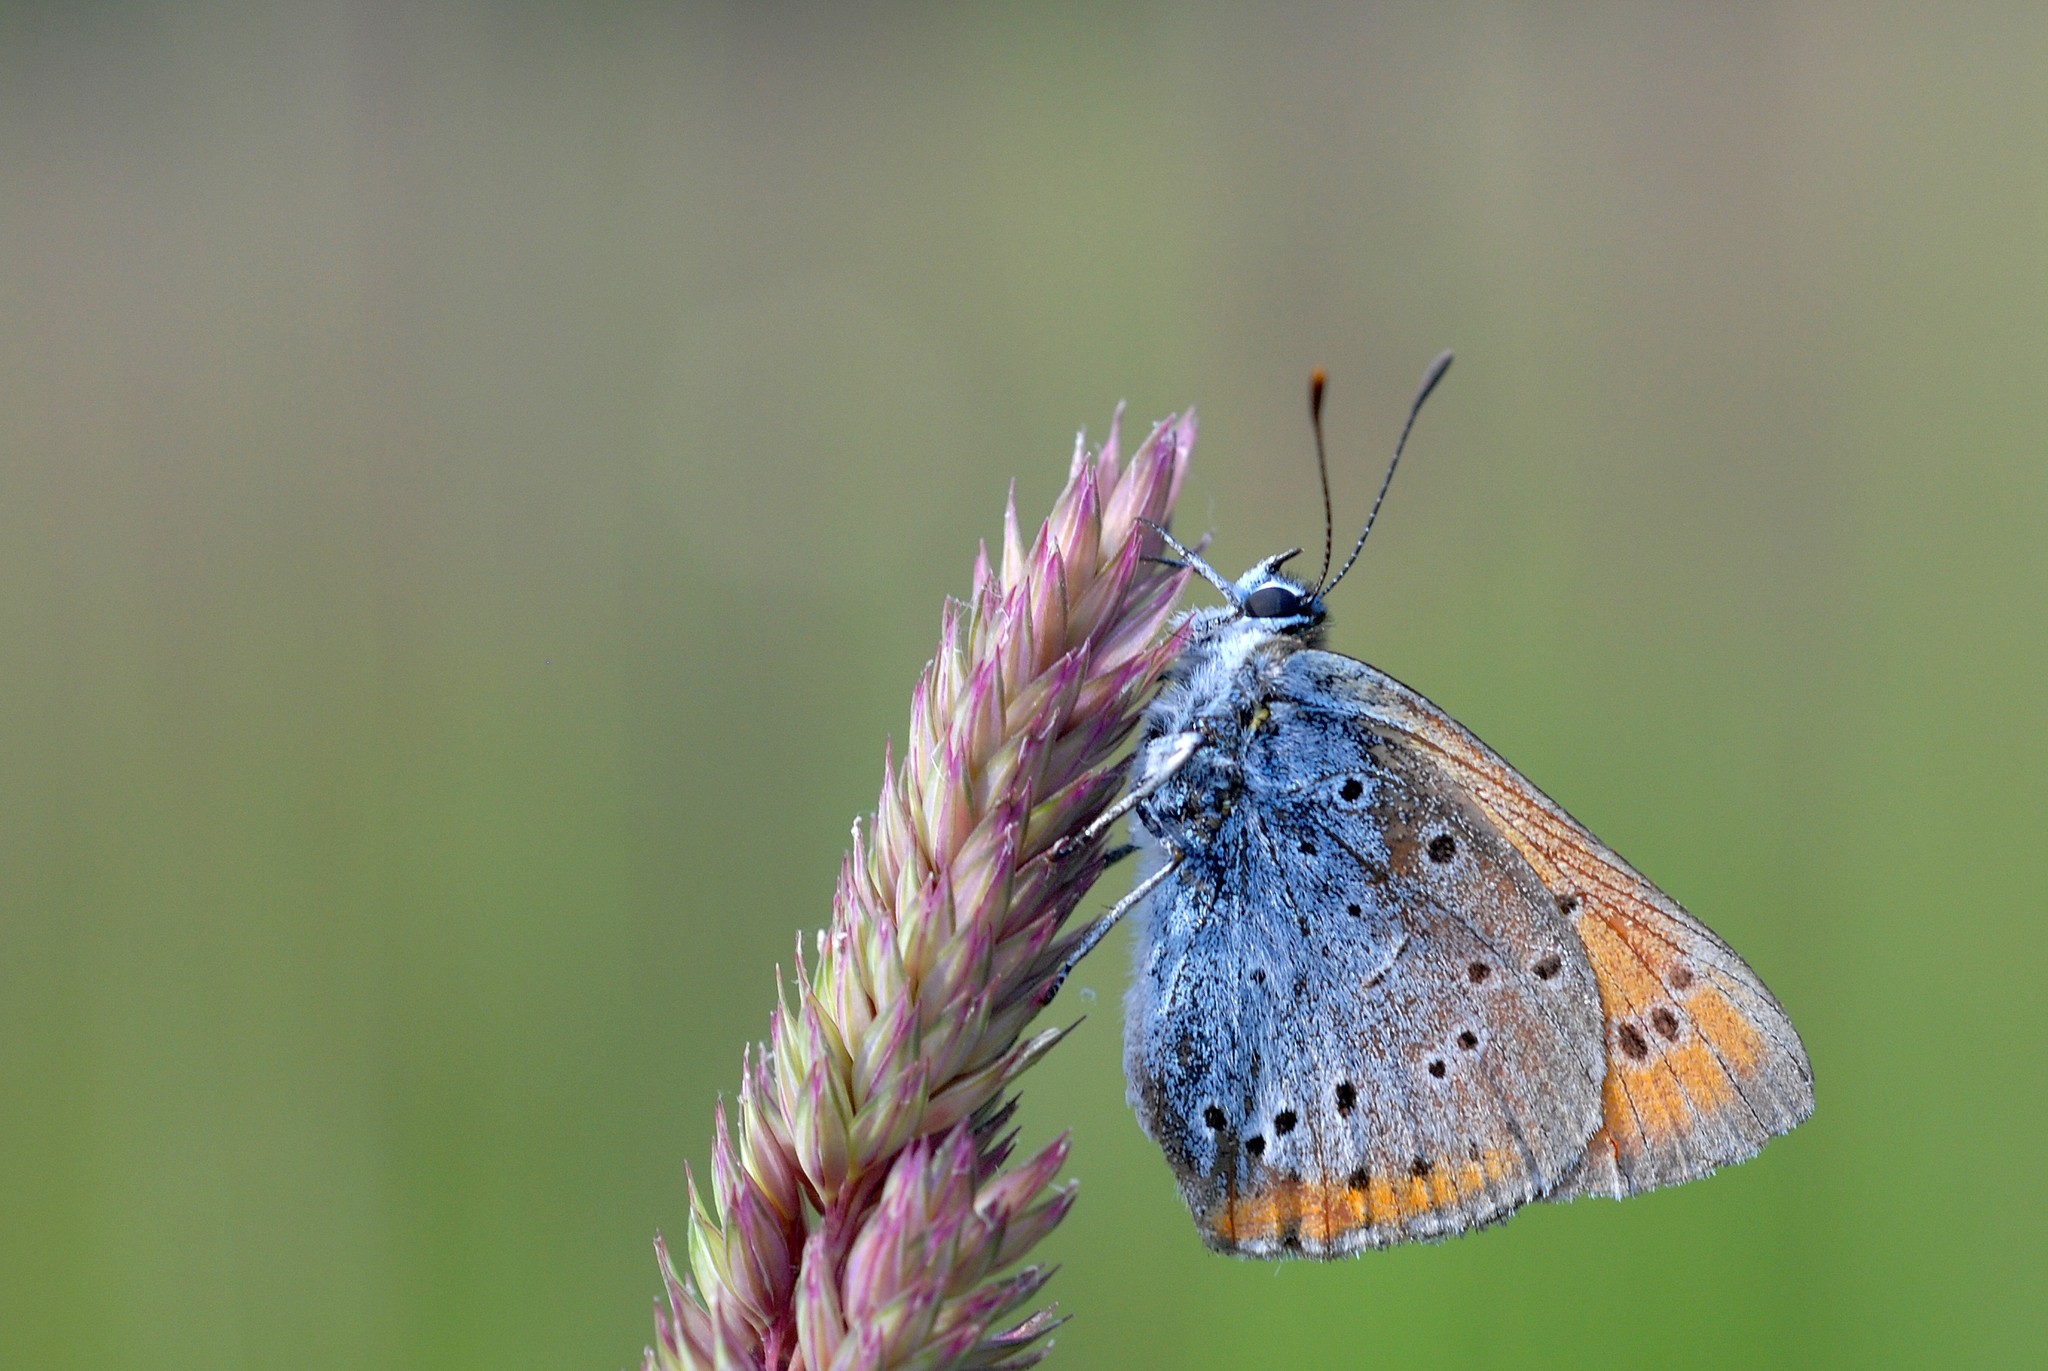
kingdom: Animalia
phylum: Arthropoda
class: Insecta
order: Lepidoptera
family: Lycaenidae
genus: Lycaena
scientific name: Lycaena dispar
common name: Large copper
